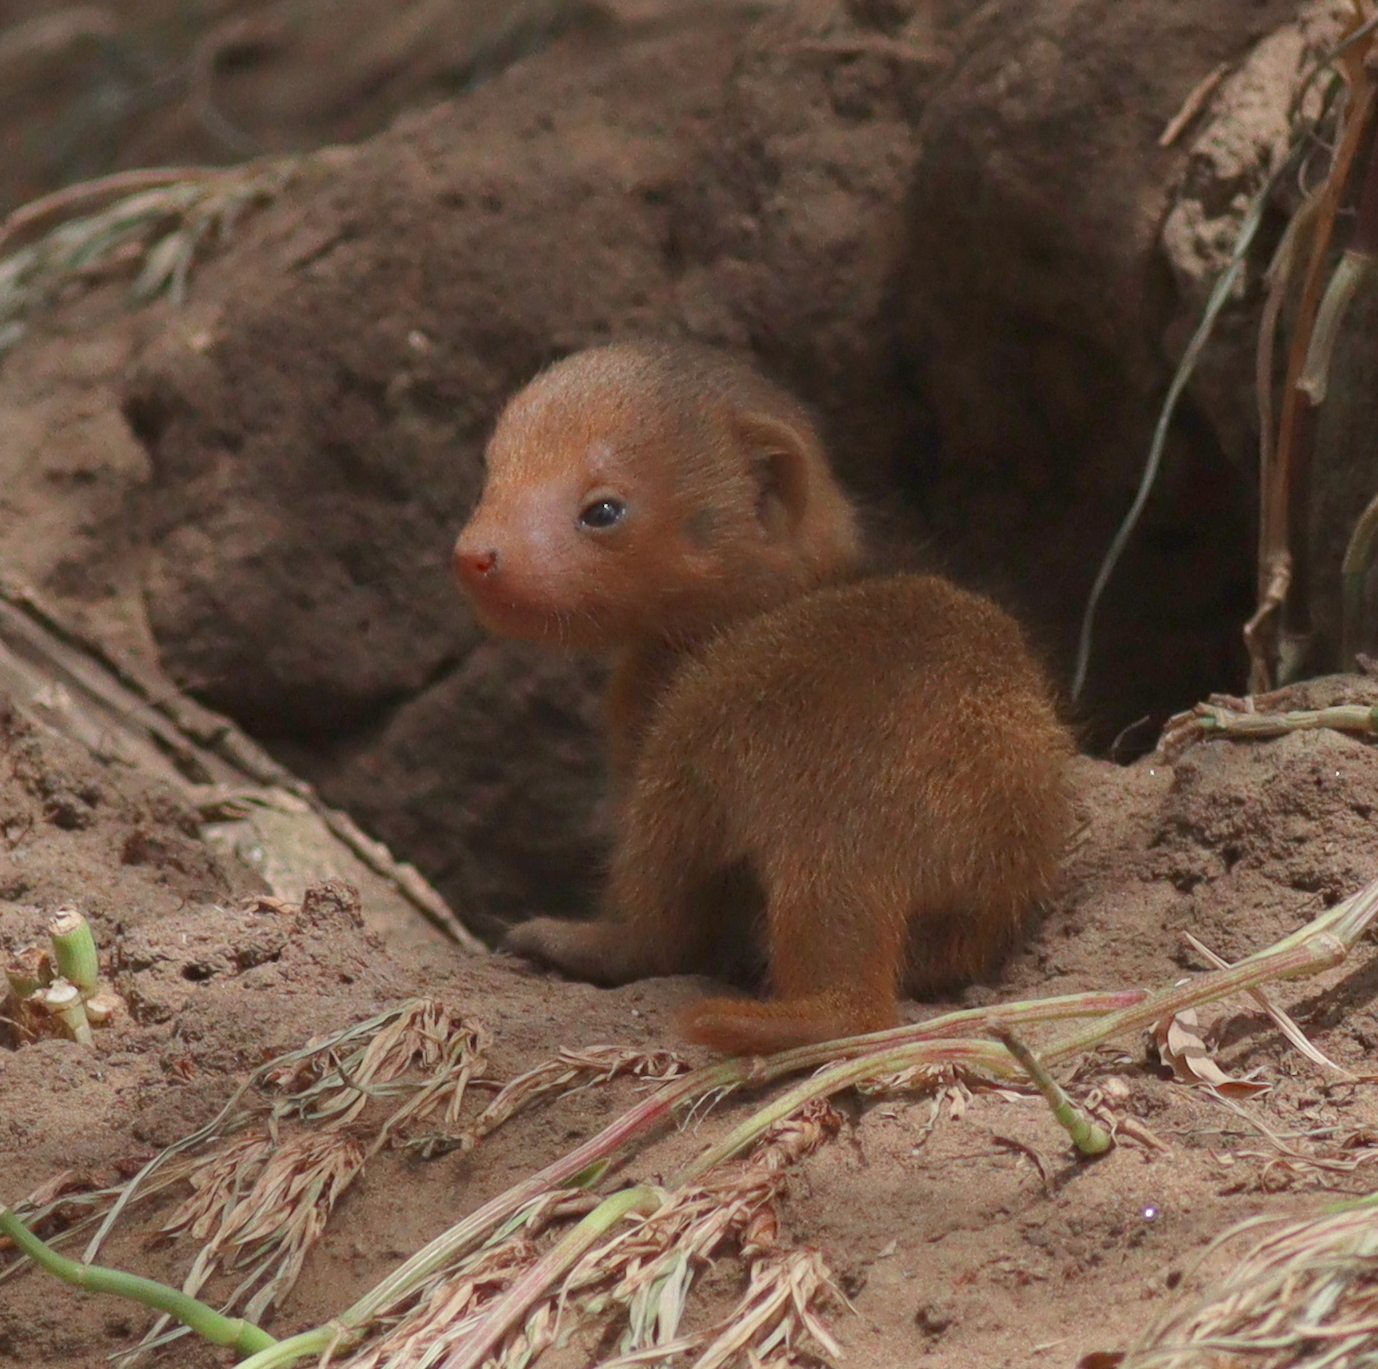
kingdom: Animalia
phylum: Chordata
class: Mammalia
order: Carnivora
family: Herpestidae
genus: Helogale
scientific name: Helogale parvula
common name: Common dwarf mongoose
